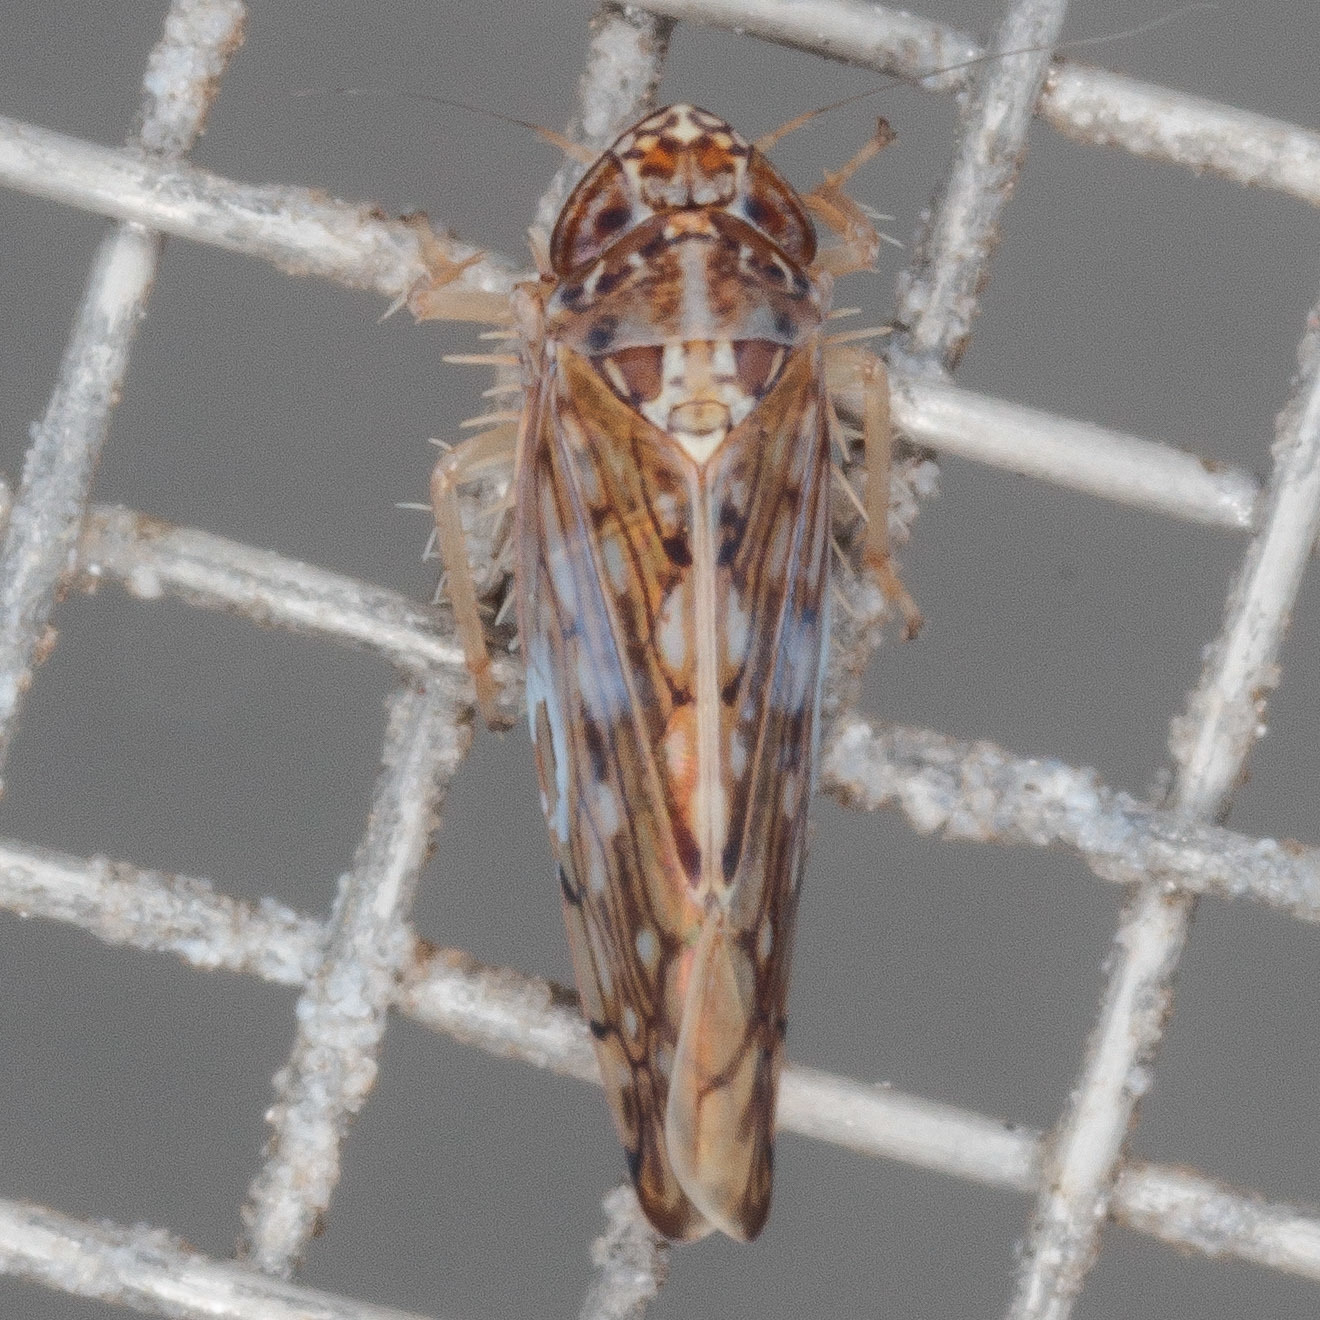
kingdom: Animalia
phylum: Arthropoda
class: Insecta
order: Hemiptera
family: Cicadellidae
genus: Osbornellus
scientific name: Osbornellus clarus
